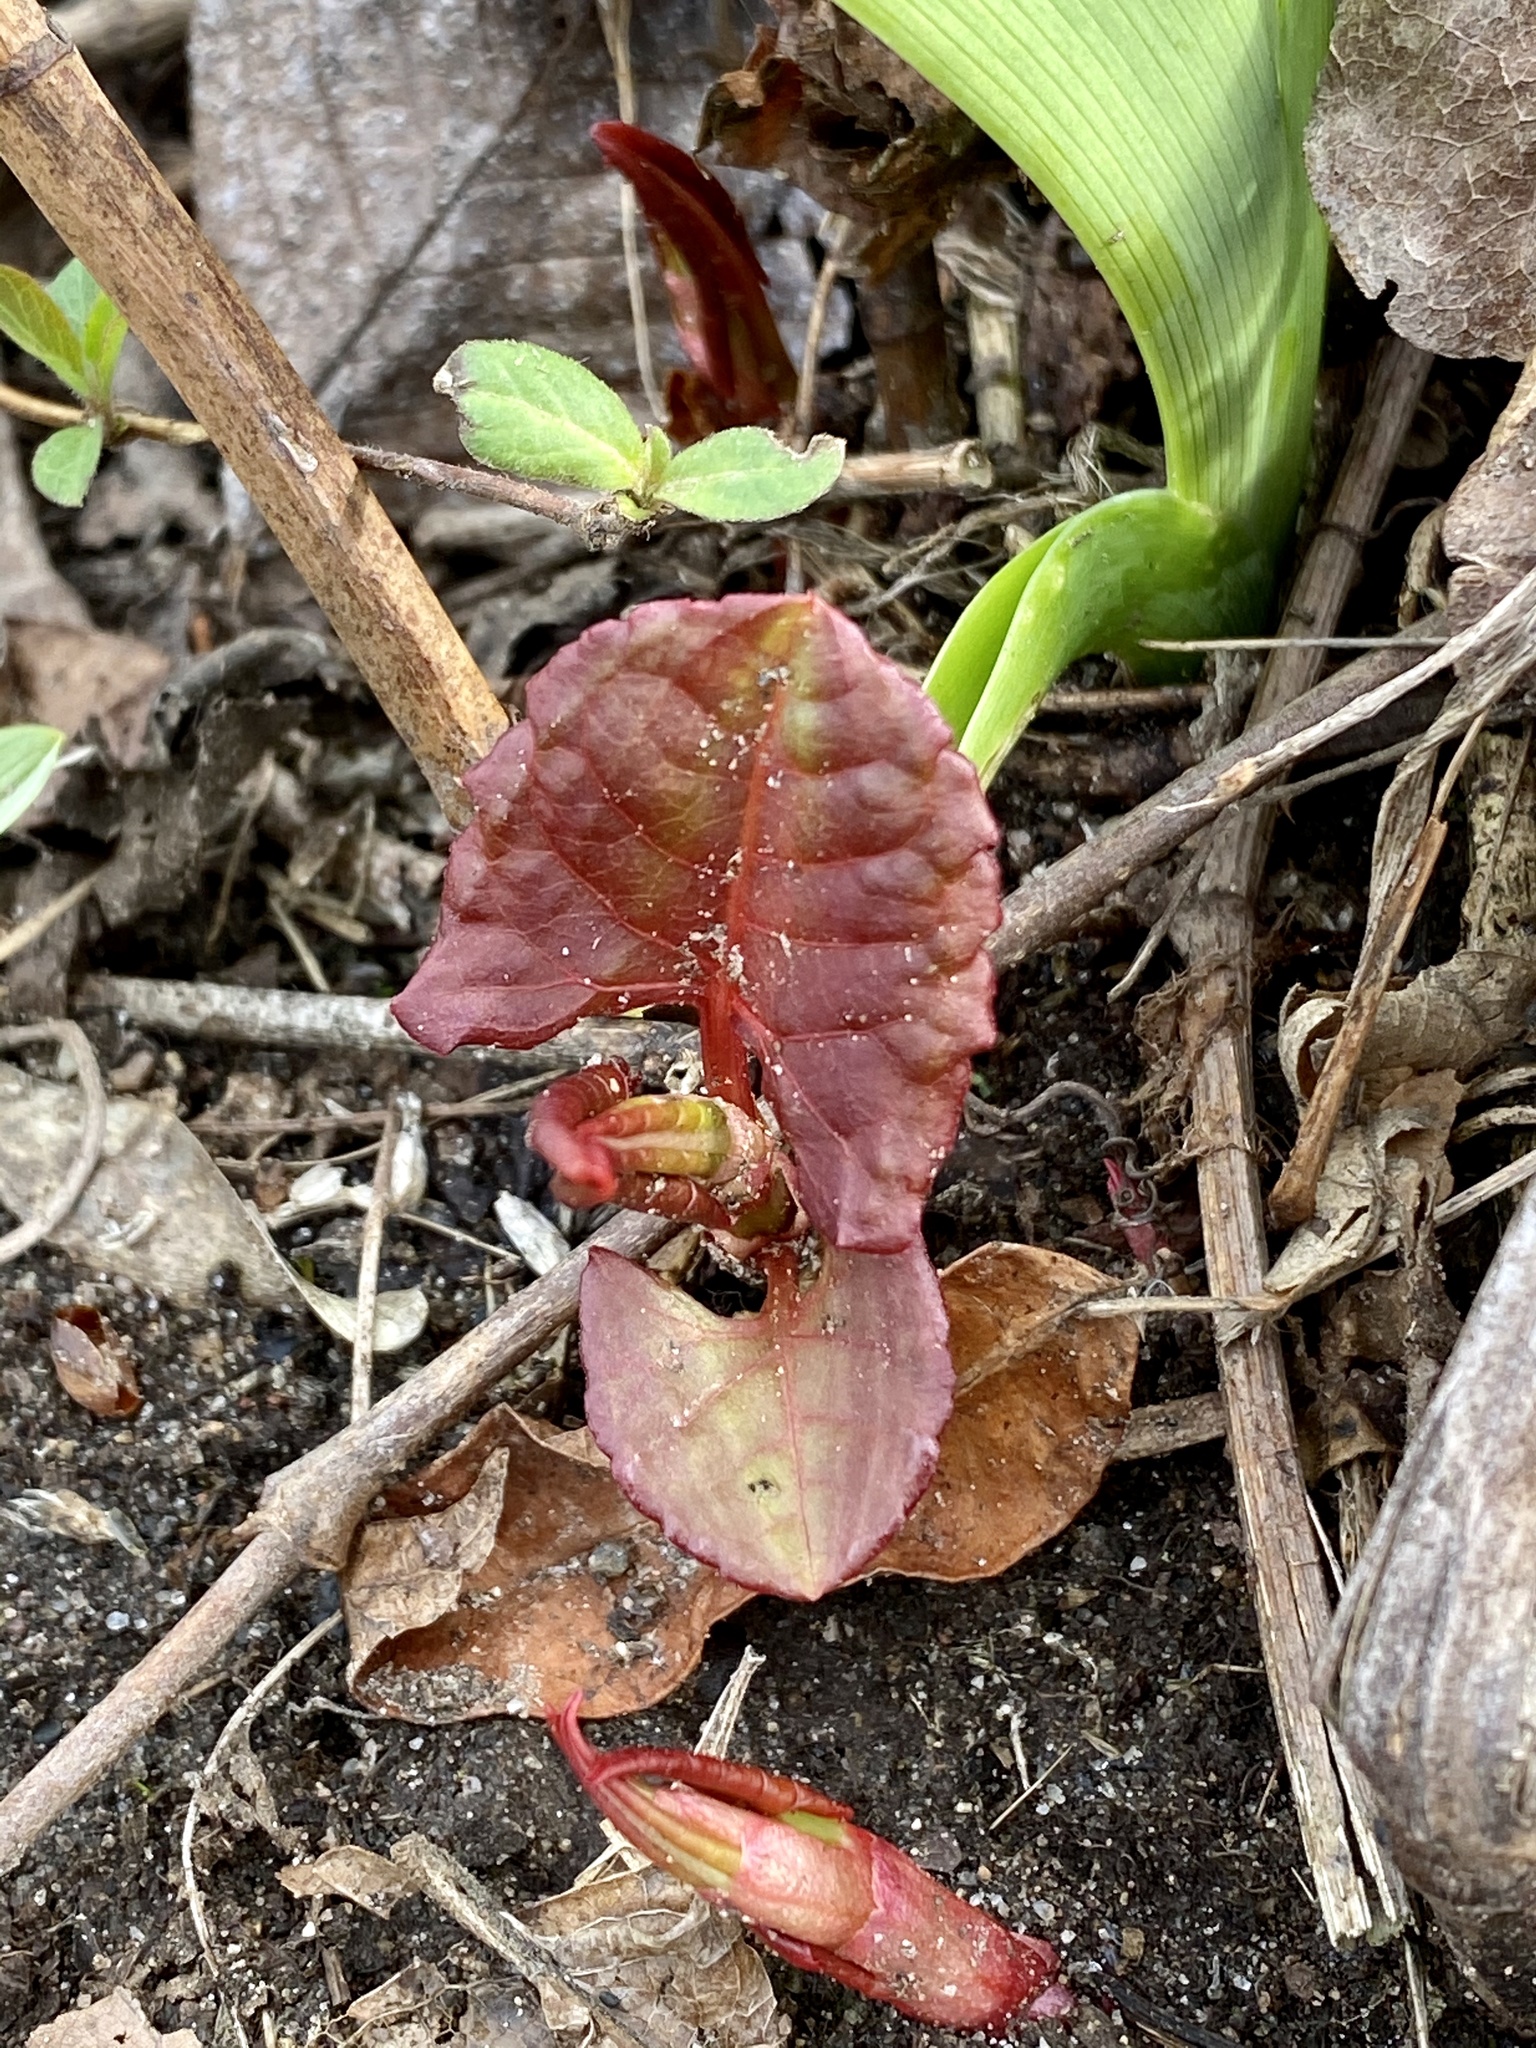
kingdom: Plantae
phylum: Tracheophyta
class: Magnoliopsida
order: Caryophyllales
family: Polygonaceae
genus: Reynoutria
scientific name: Reynoutria japonica
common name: Japanese knotweed
